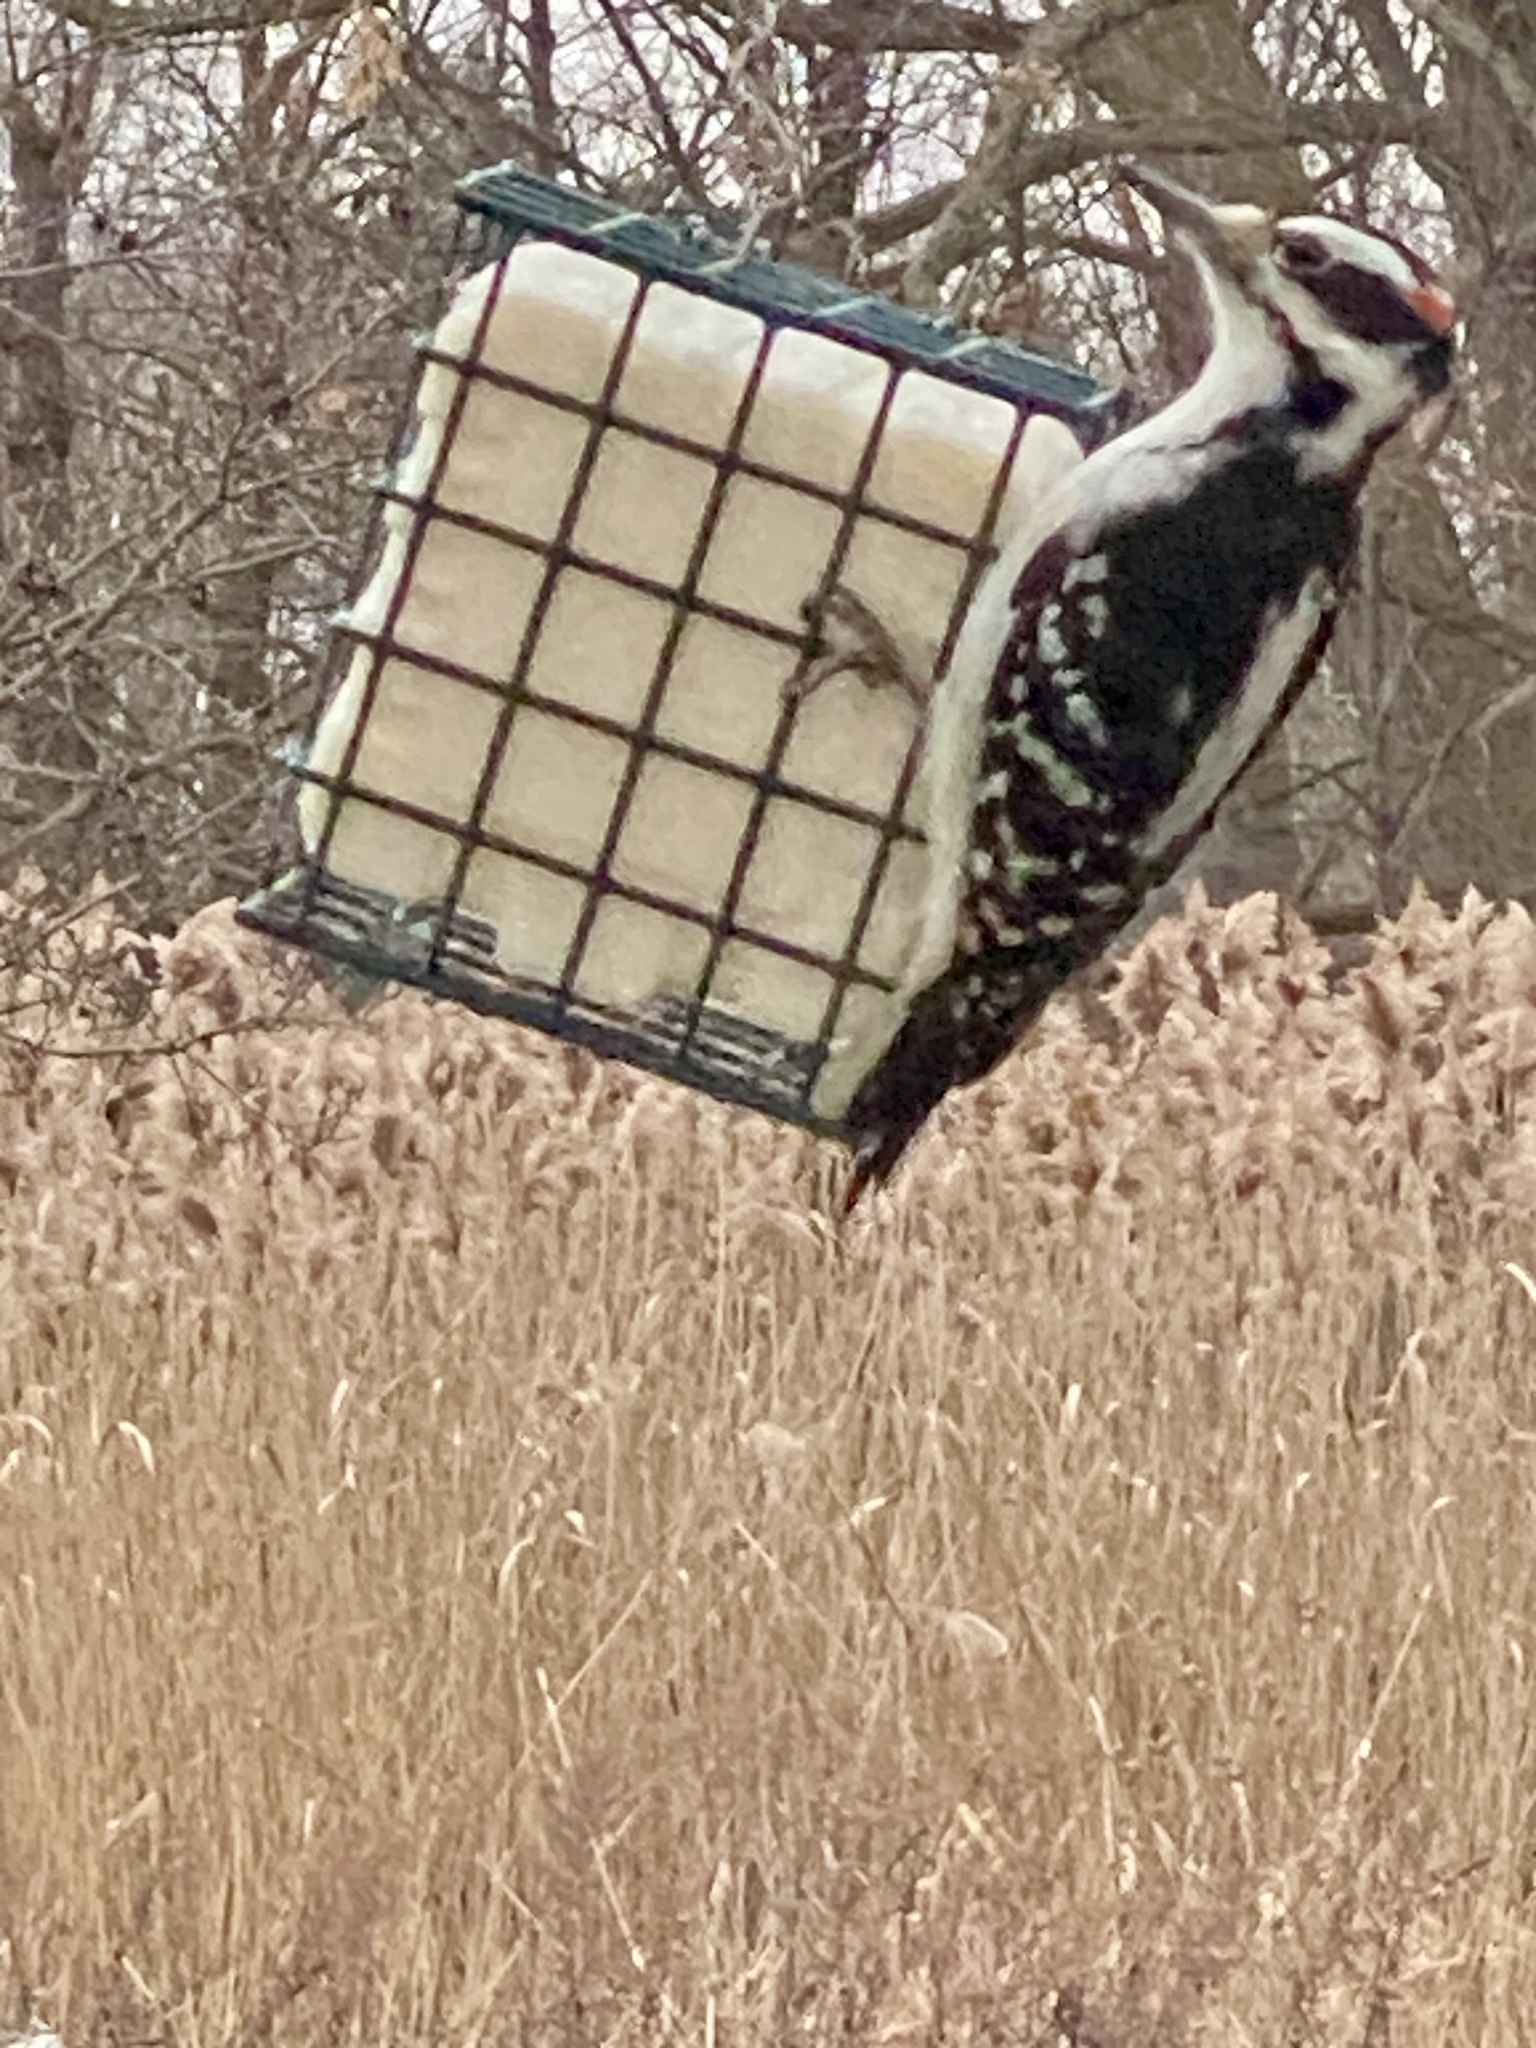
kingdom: Animalia
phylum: Chordata
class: Aves
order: Piciformes
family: Picidae
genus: Leuconotopicus
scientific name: Leuconotopicus villosus
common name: Hairy woodpecker
